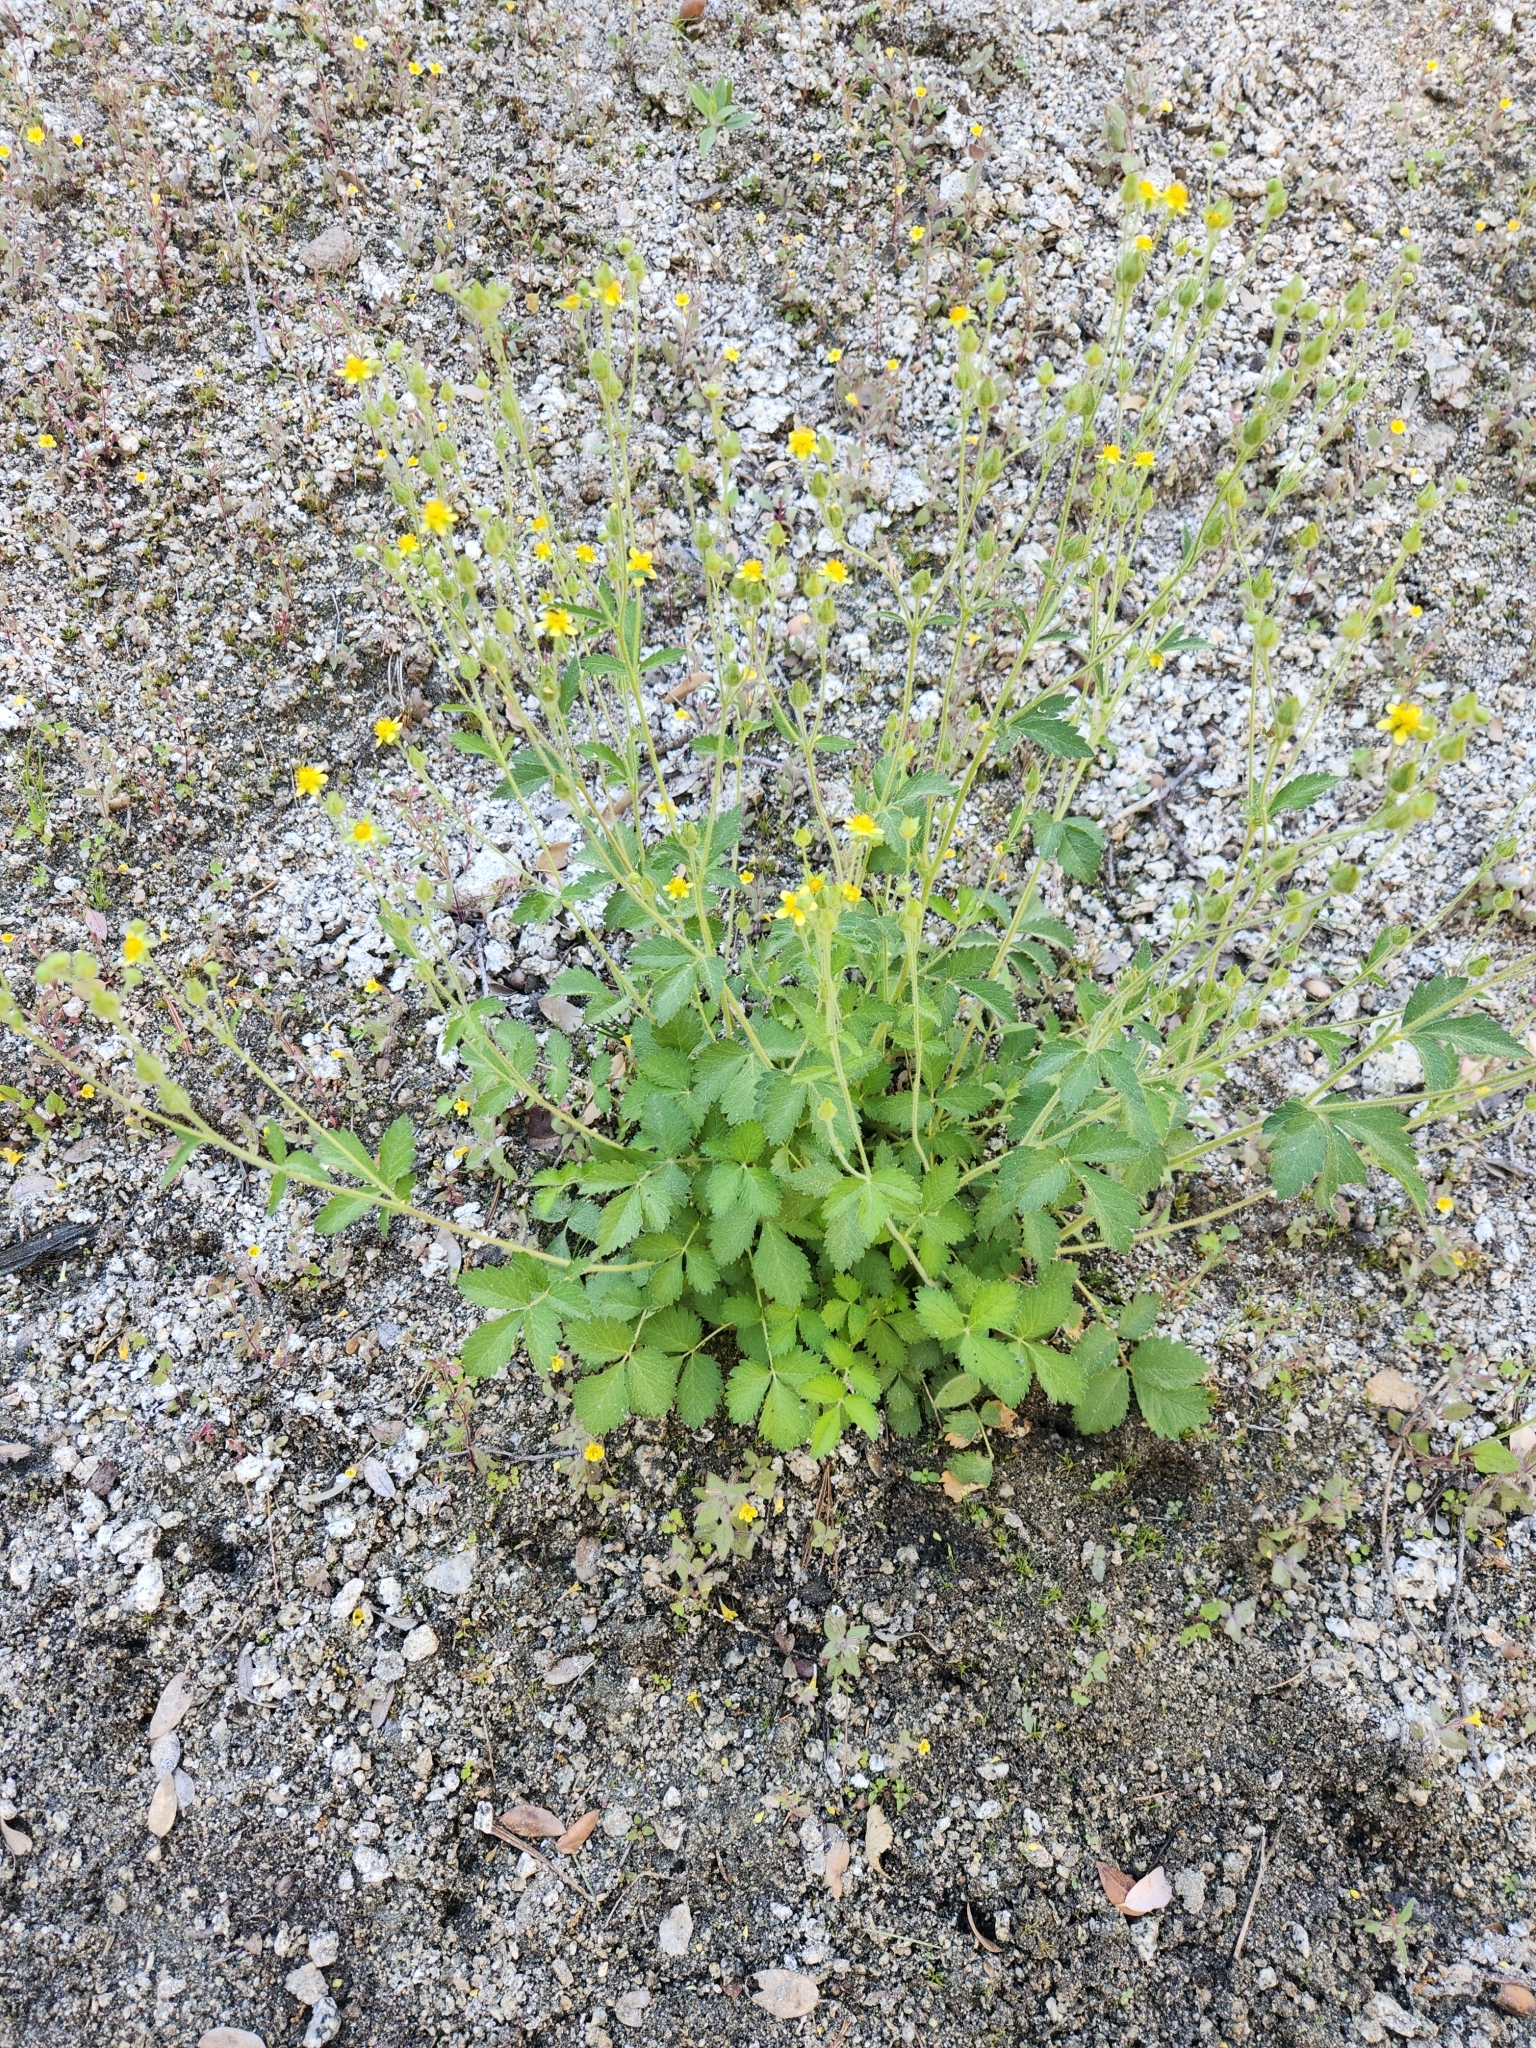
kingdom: Plantae
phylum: Tracheophyta
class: Magnoliopsida
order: Rosales
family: Rosaceae
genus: Drymocallis
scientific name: Drymocallis glandulosa
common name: Sticky cinquefoil
